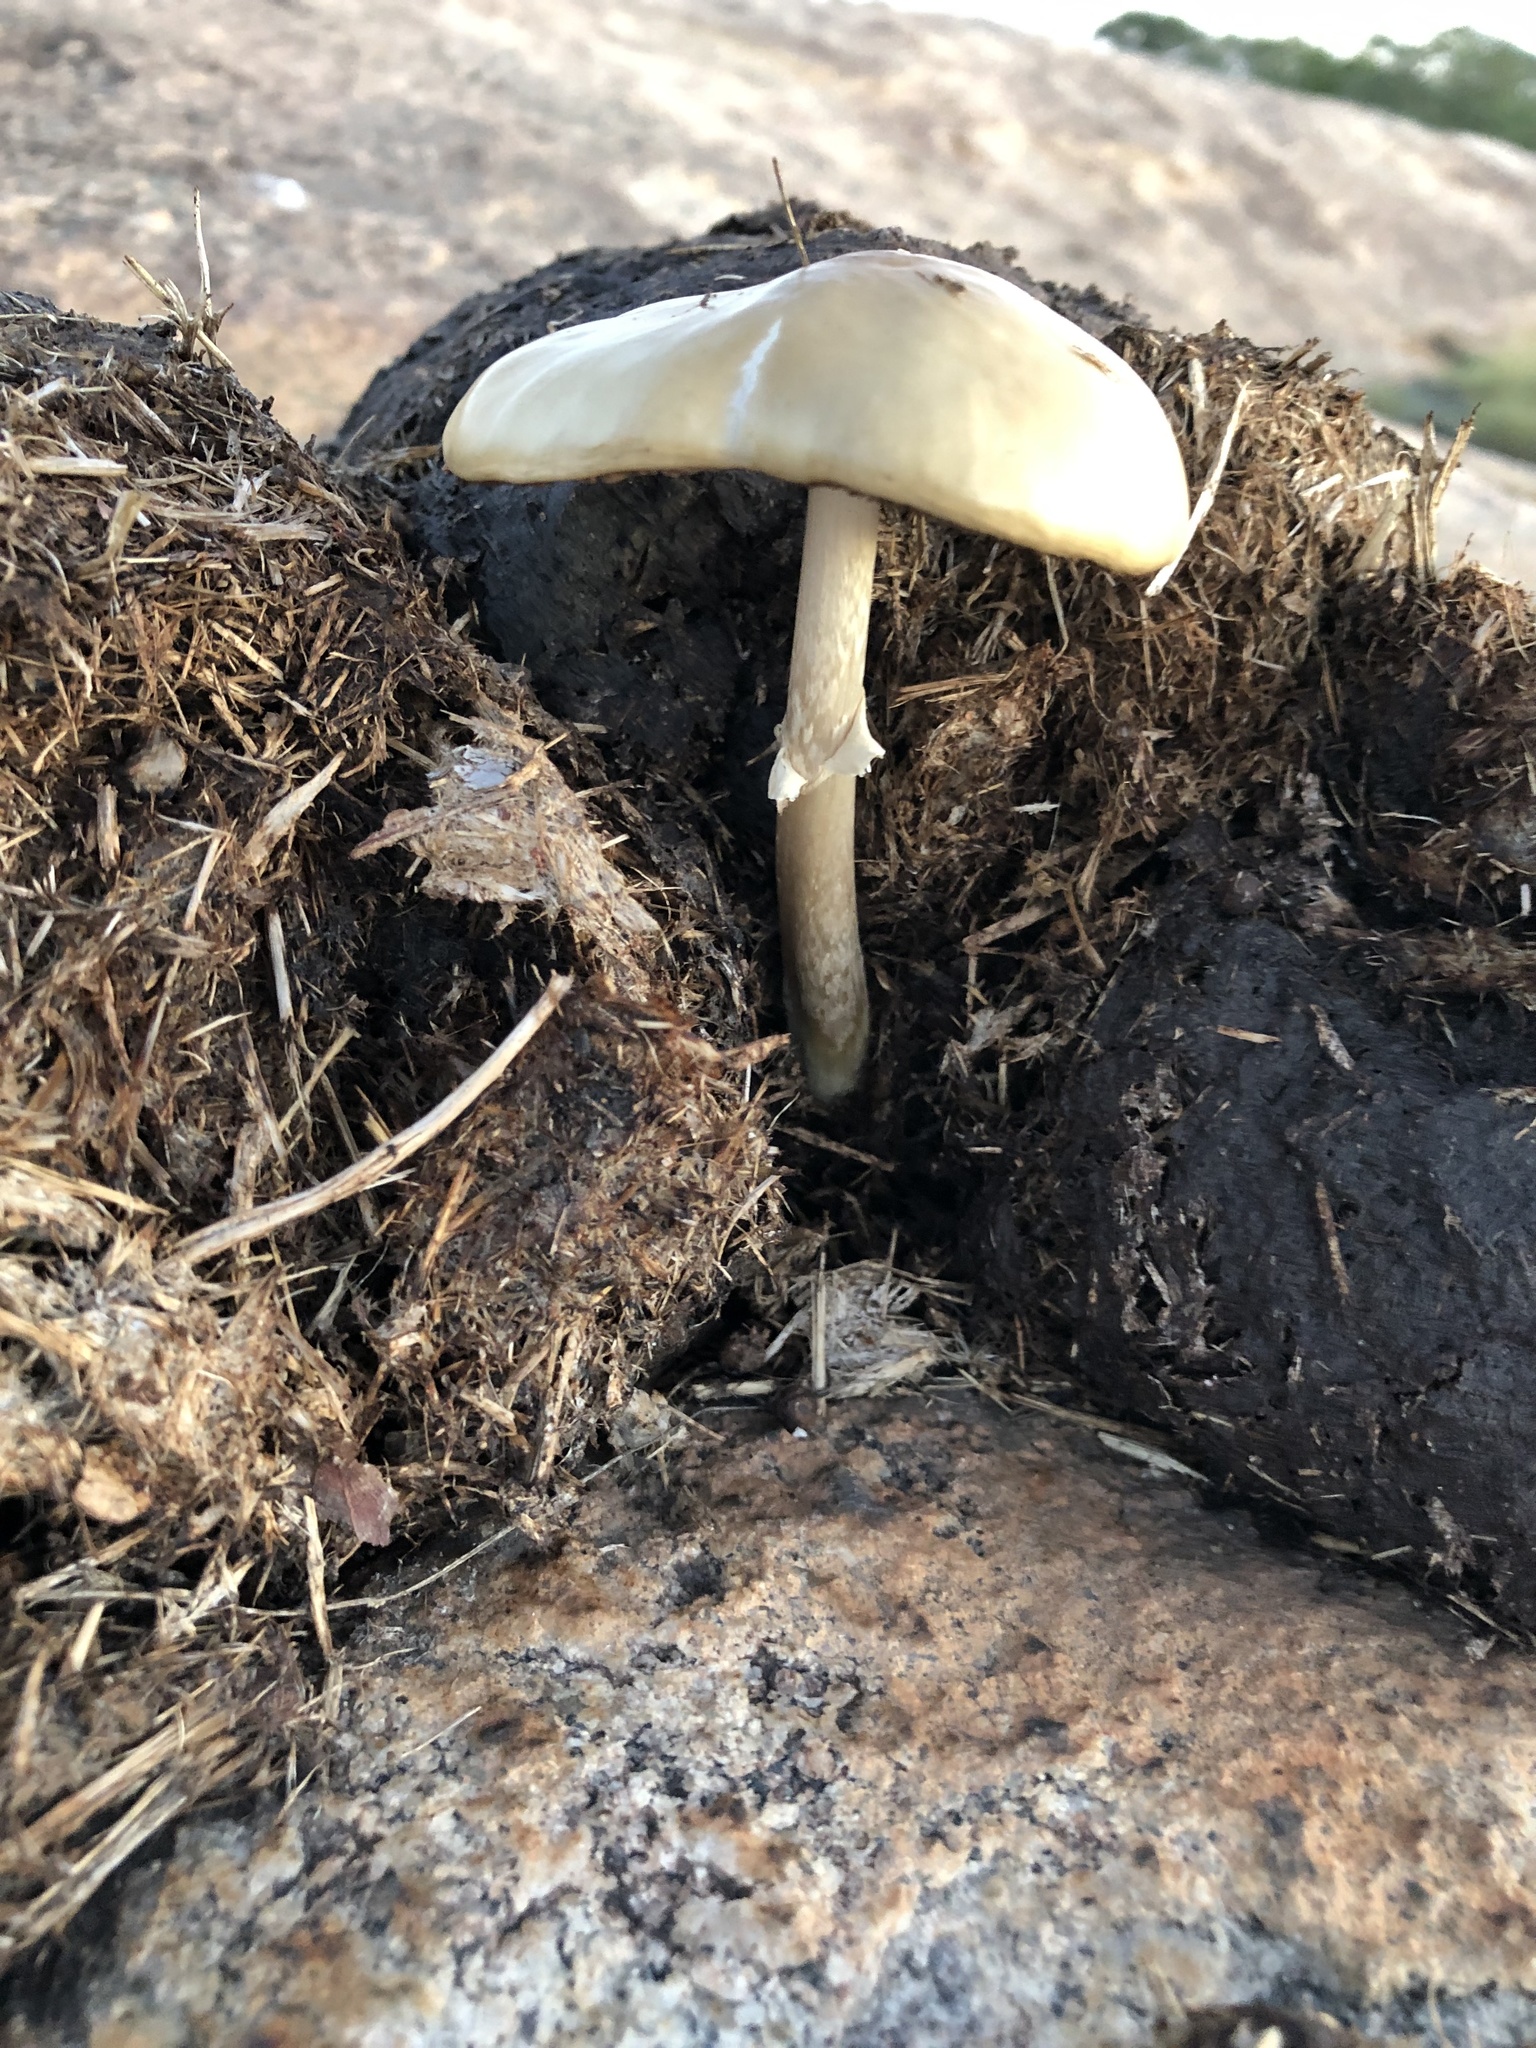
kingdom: Fungi
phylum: Basidiomycota
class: Agaricomycetes
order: Agaricales
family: Strophariaceae
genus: Protostropharia
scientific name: Protostropharia semiglobata
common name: Dung roundhead
